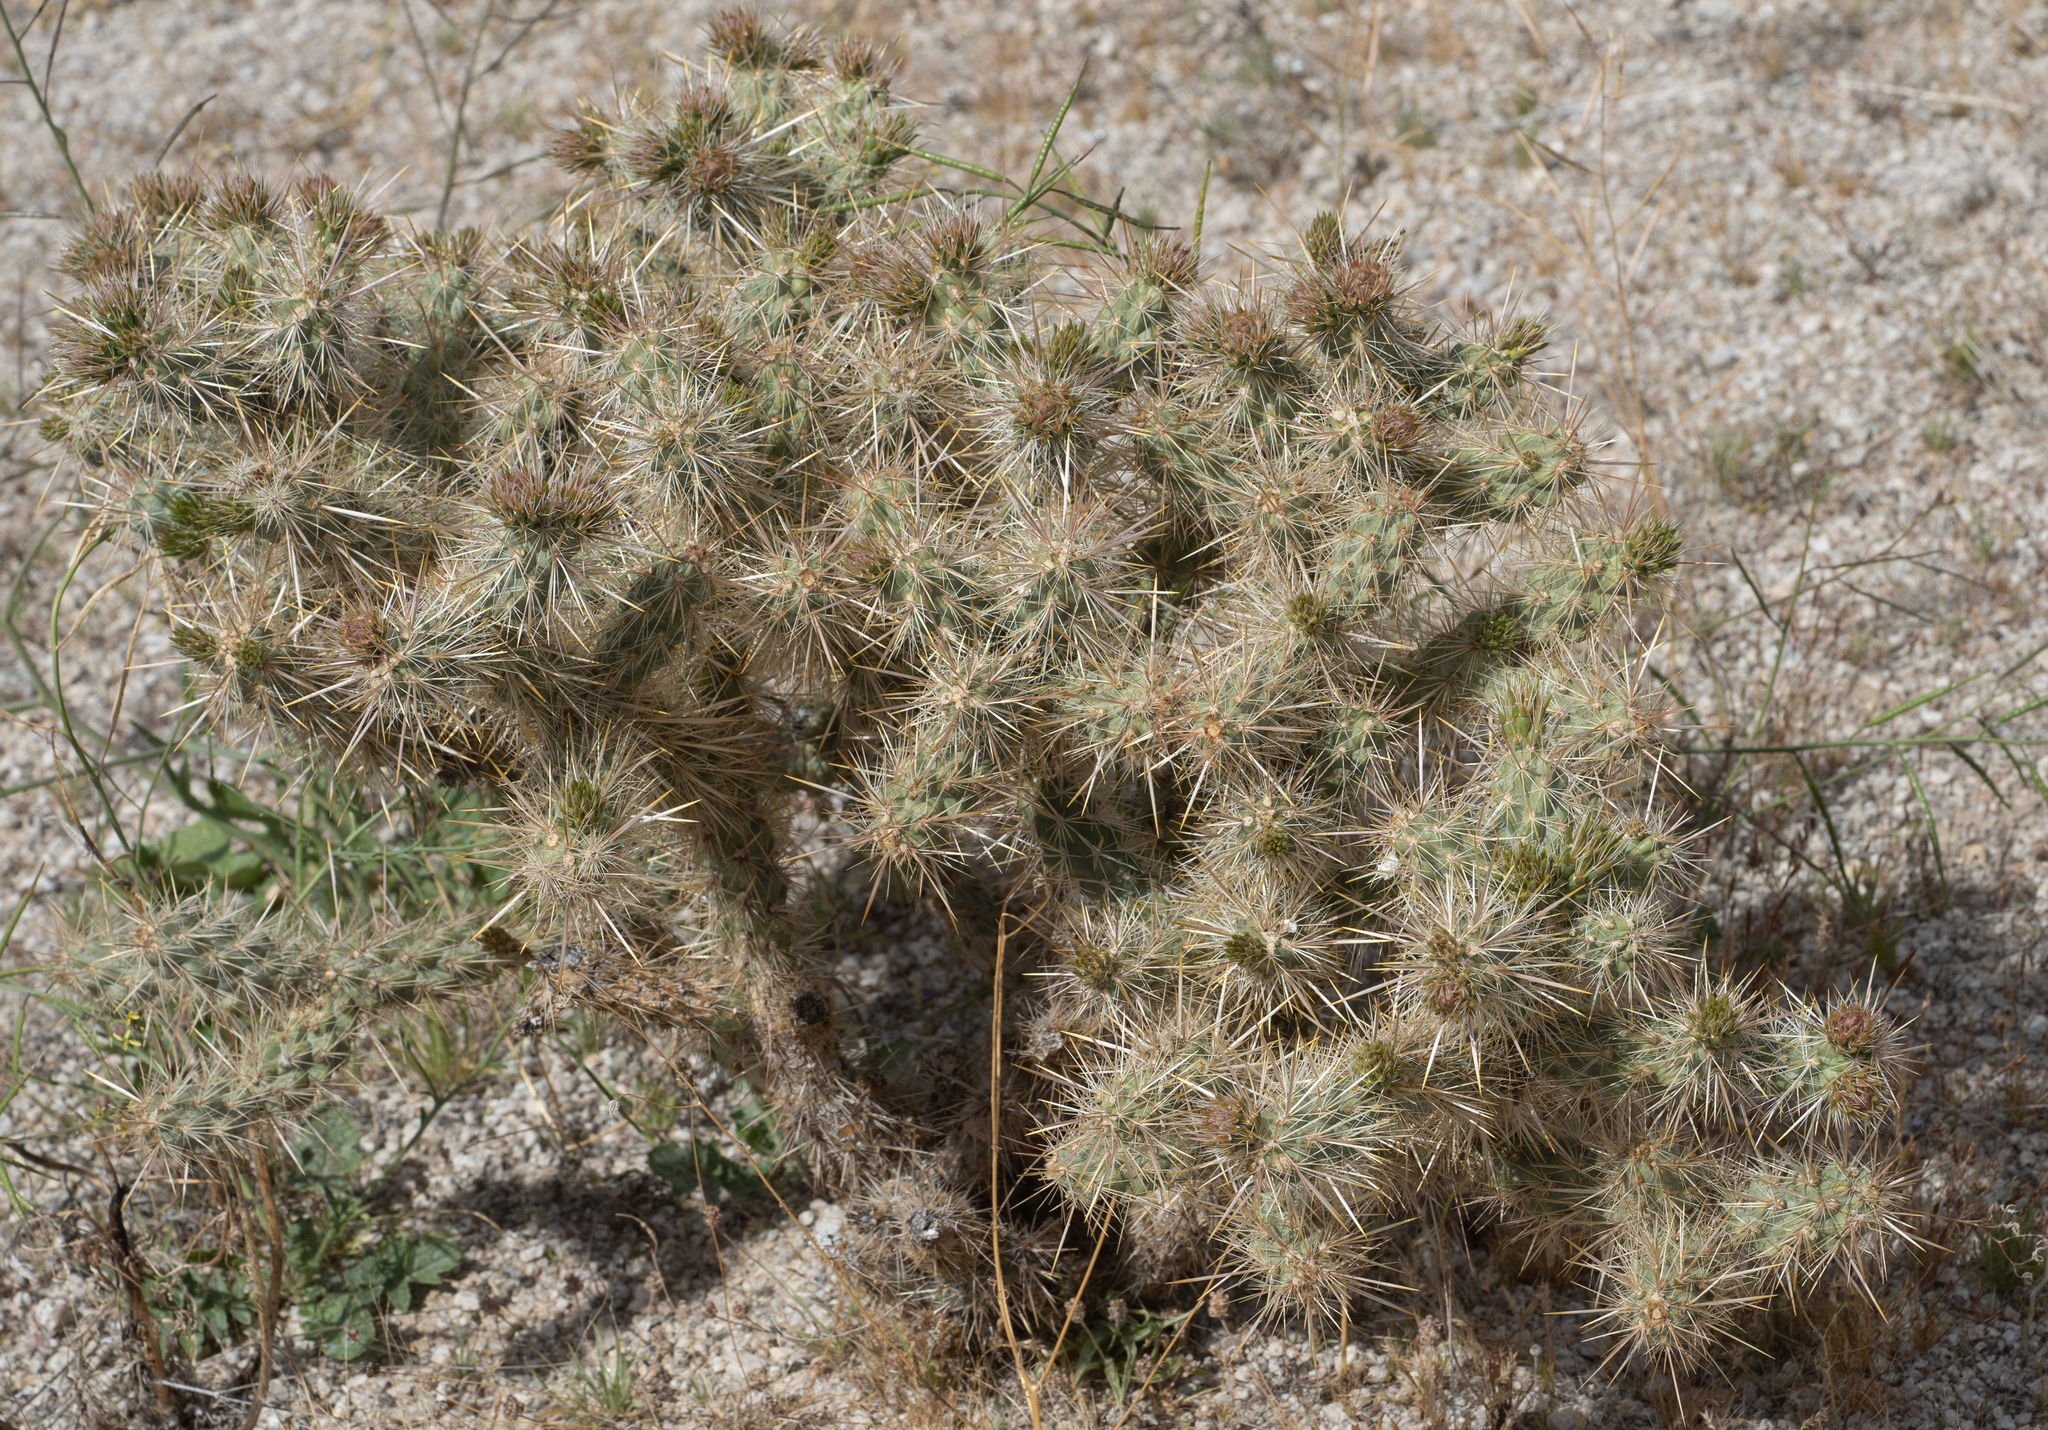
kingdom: Plantae
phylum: Tracheophyta
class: Magnoliopsida
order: Caryophyllales
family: Cactaceae
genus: Cylindropuntia
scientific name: Cylindropuntia echinocarpa
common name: Ground cholla
